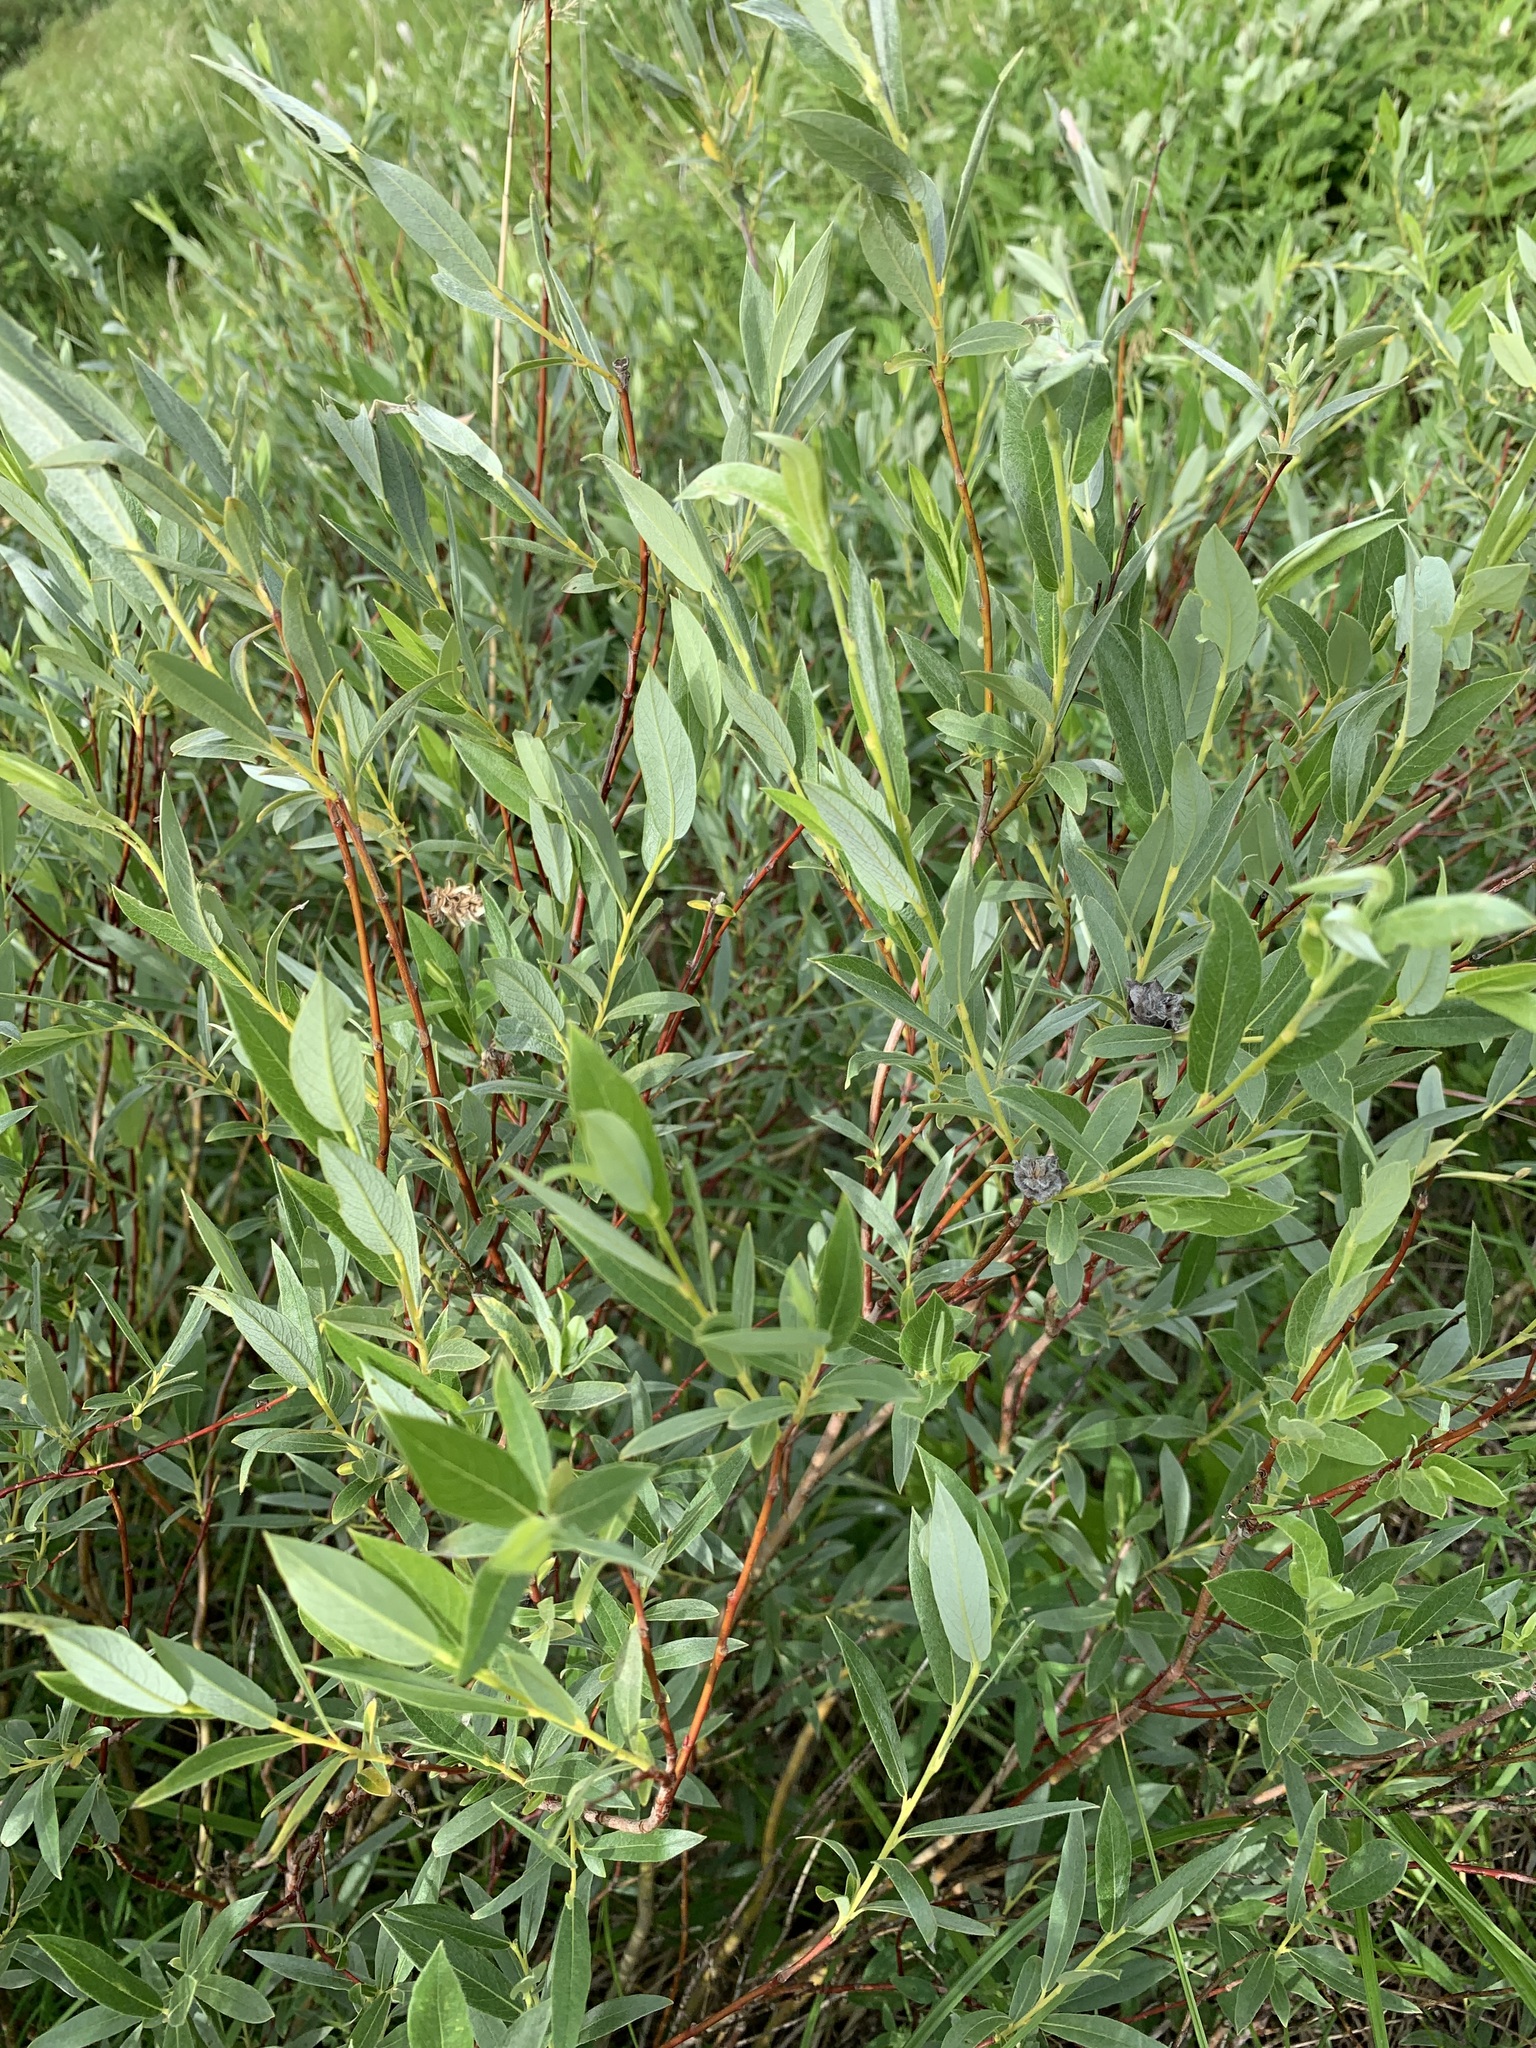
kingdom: Plantae
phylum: Tracheophyta
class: Magnoliopsida
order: Malpighiales
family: Salicaceae
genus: Salix
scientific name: Salix rosmarinifolia
